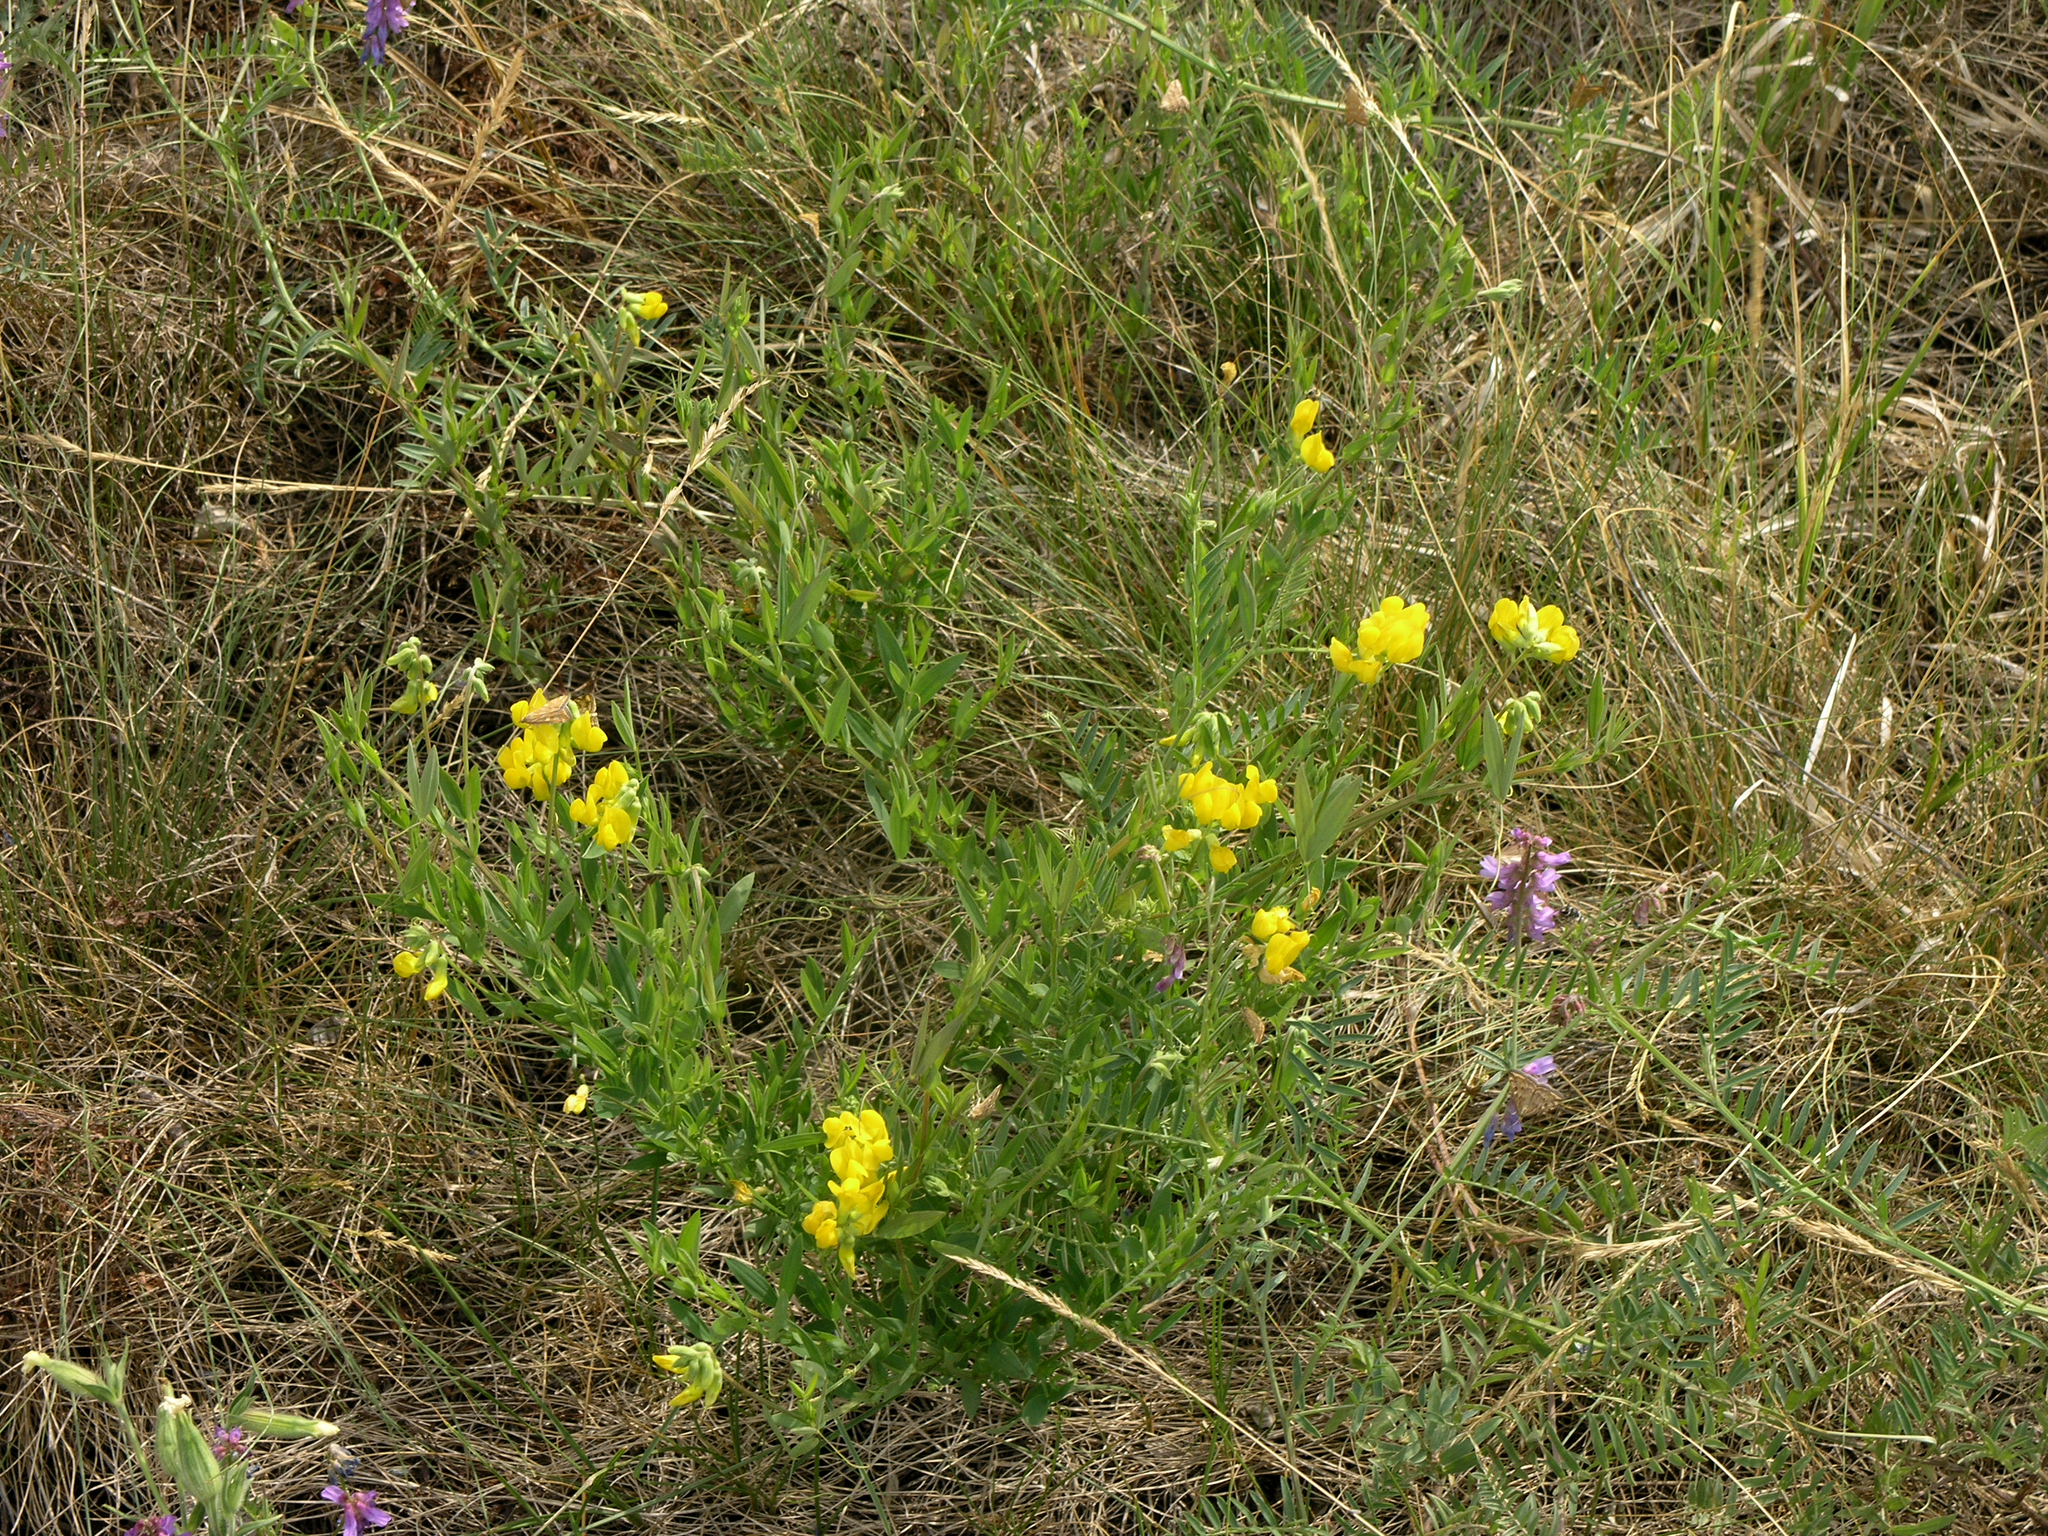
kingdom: Plantae
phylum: Tracheophyta
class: Magnoliopsida
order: Fabales
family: Fabaceae
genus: Lathyrus
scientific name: Lathyrus pratensis
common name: Meadow vetchling
